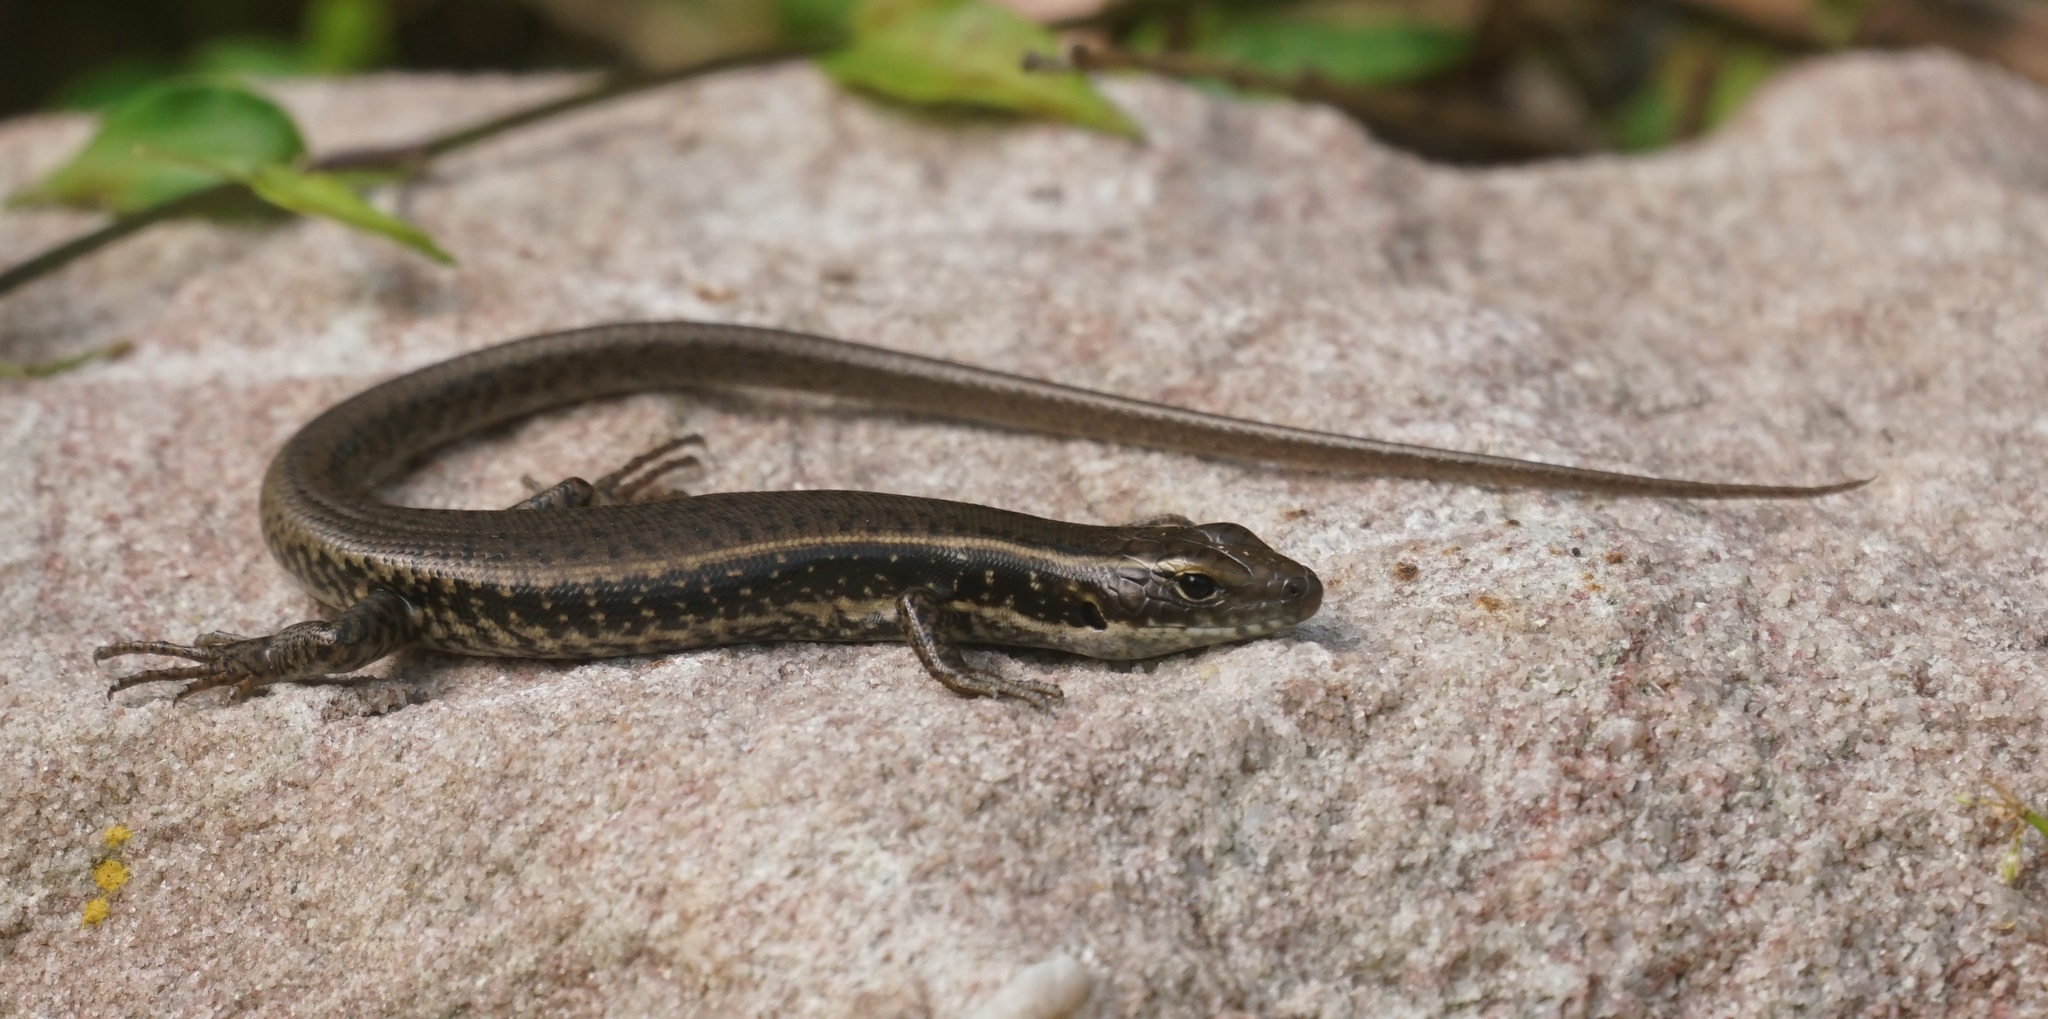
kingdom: Animalia
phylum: Chordata
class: Squamata
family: Scincidae
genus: Eulamprus
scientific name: Eulamprus quoyii
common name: Eastern water skink
